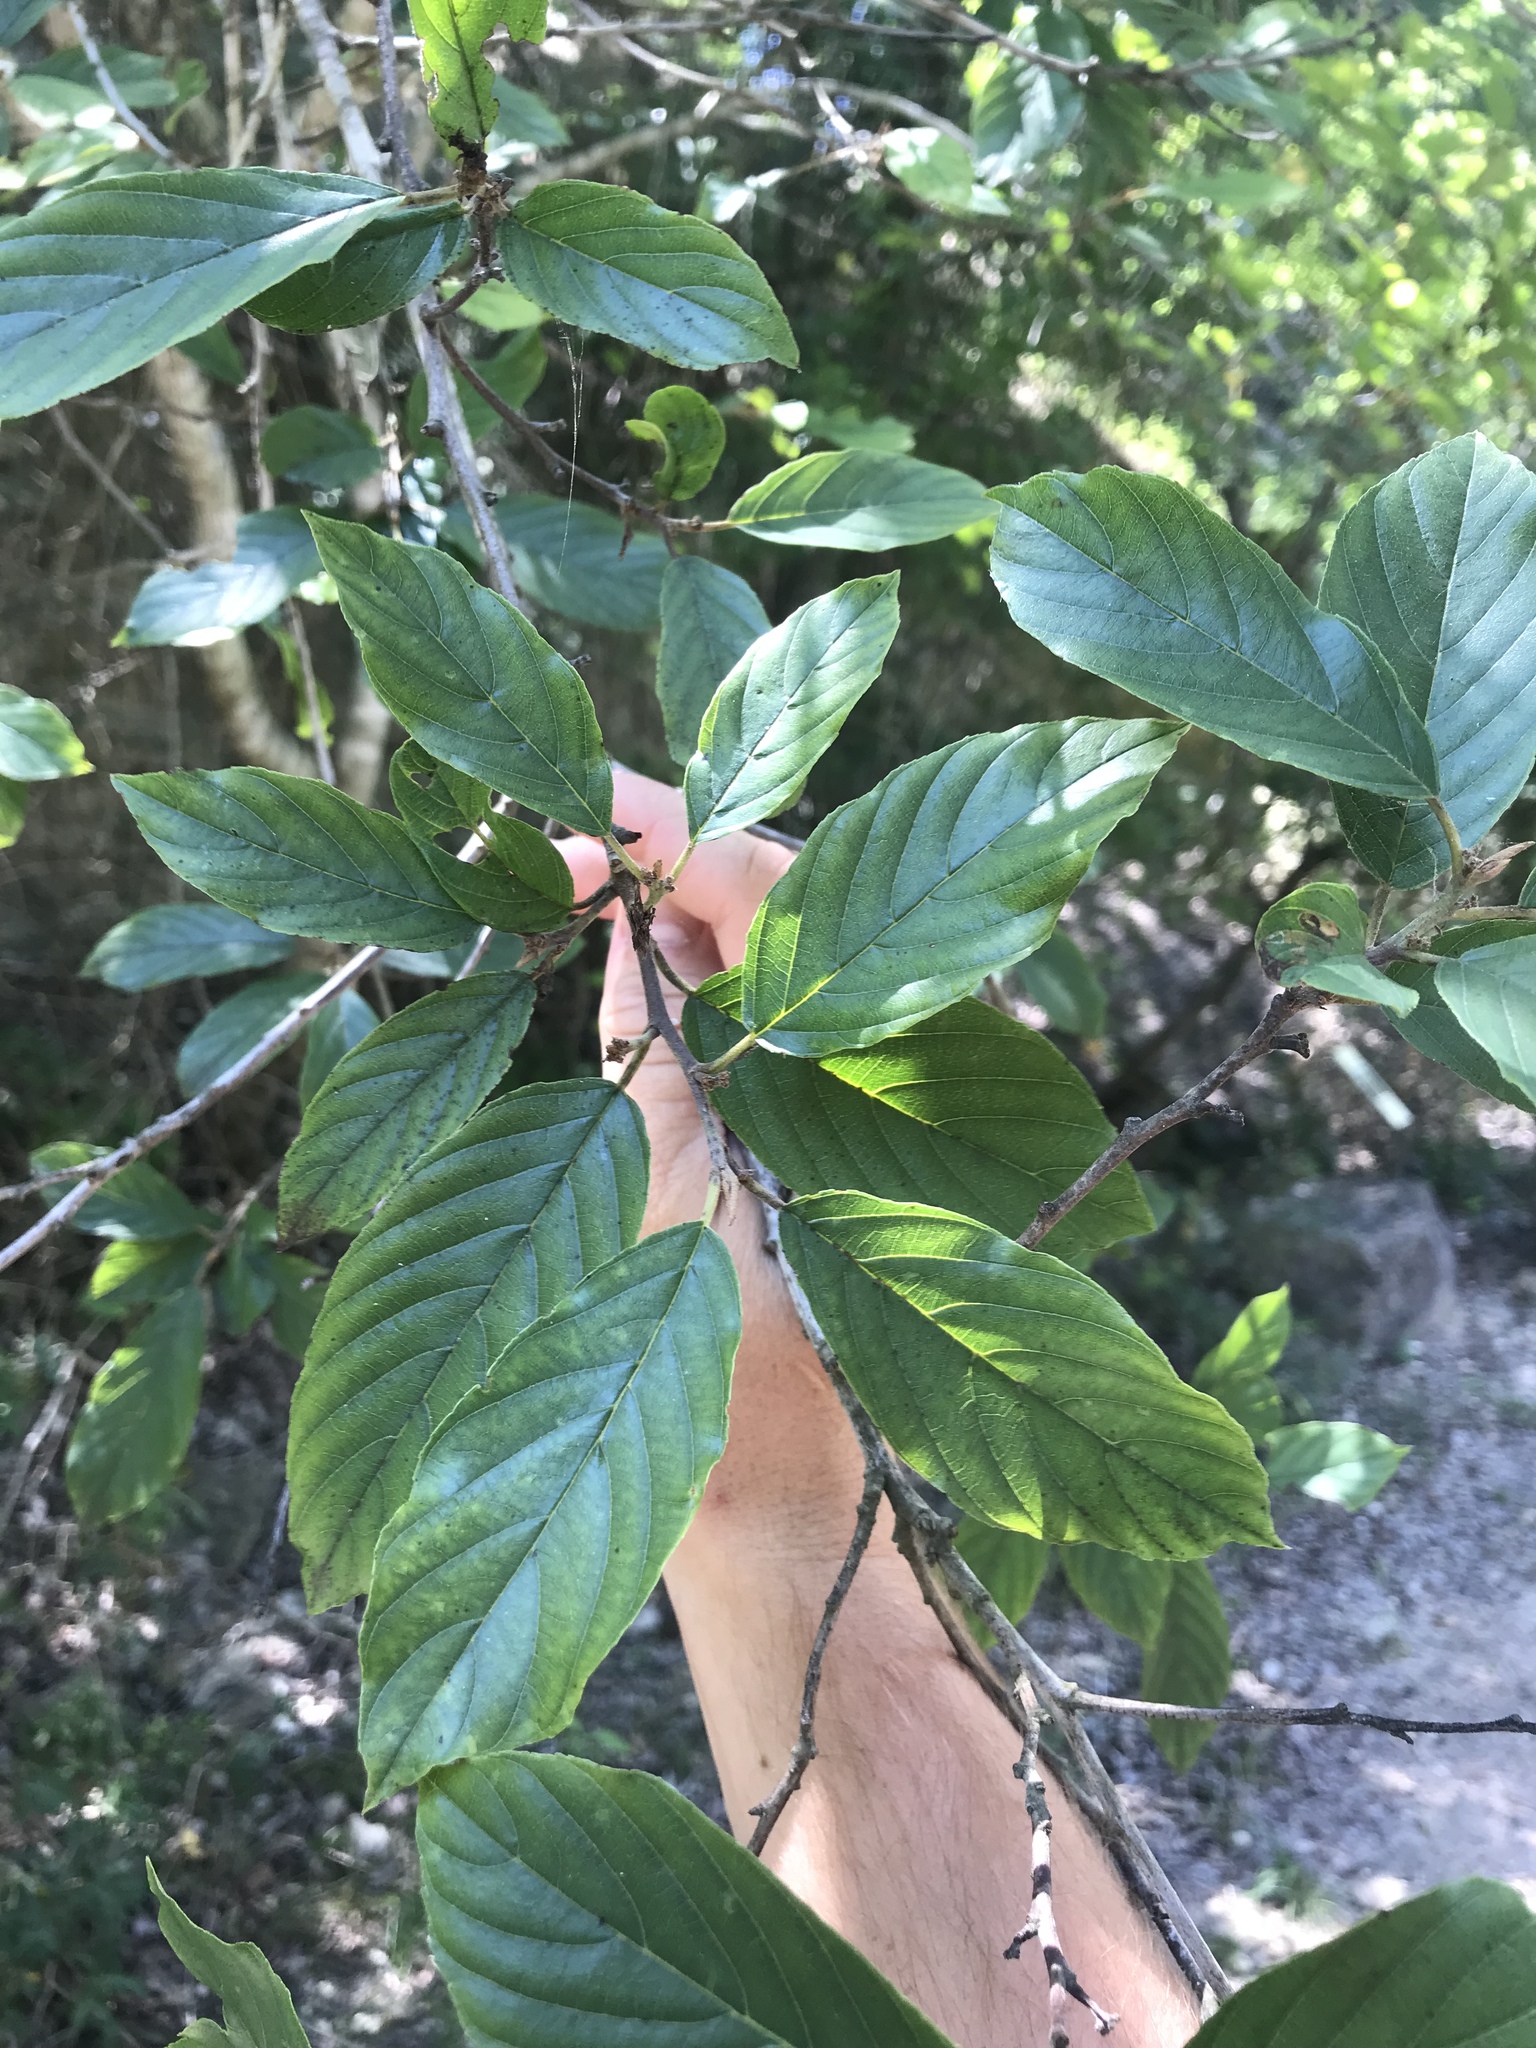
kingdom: Plantae
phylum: Tracheophyta
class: Magnoliopsida
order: Rosales
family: Rhamnaceae
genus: Frangula
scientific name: Frangula caroliniana
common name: Carolina buckthorn
